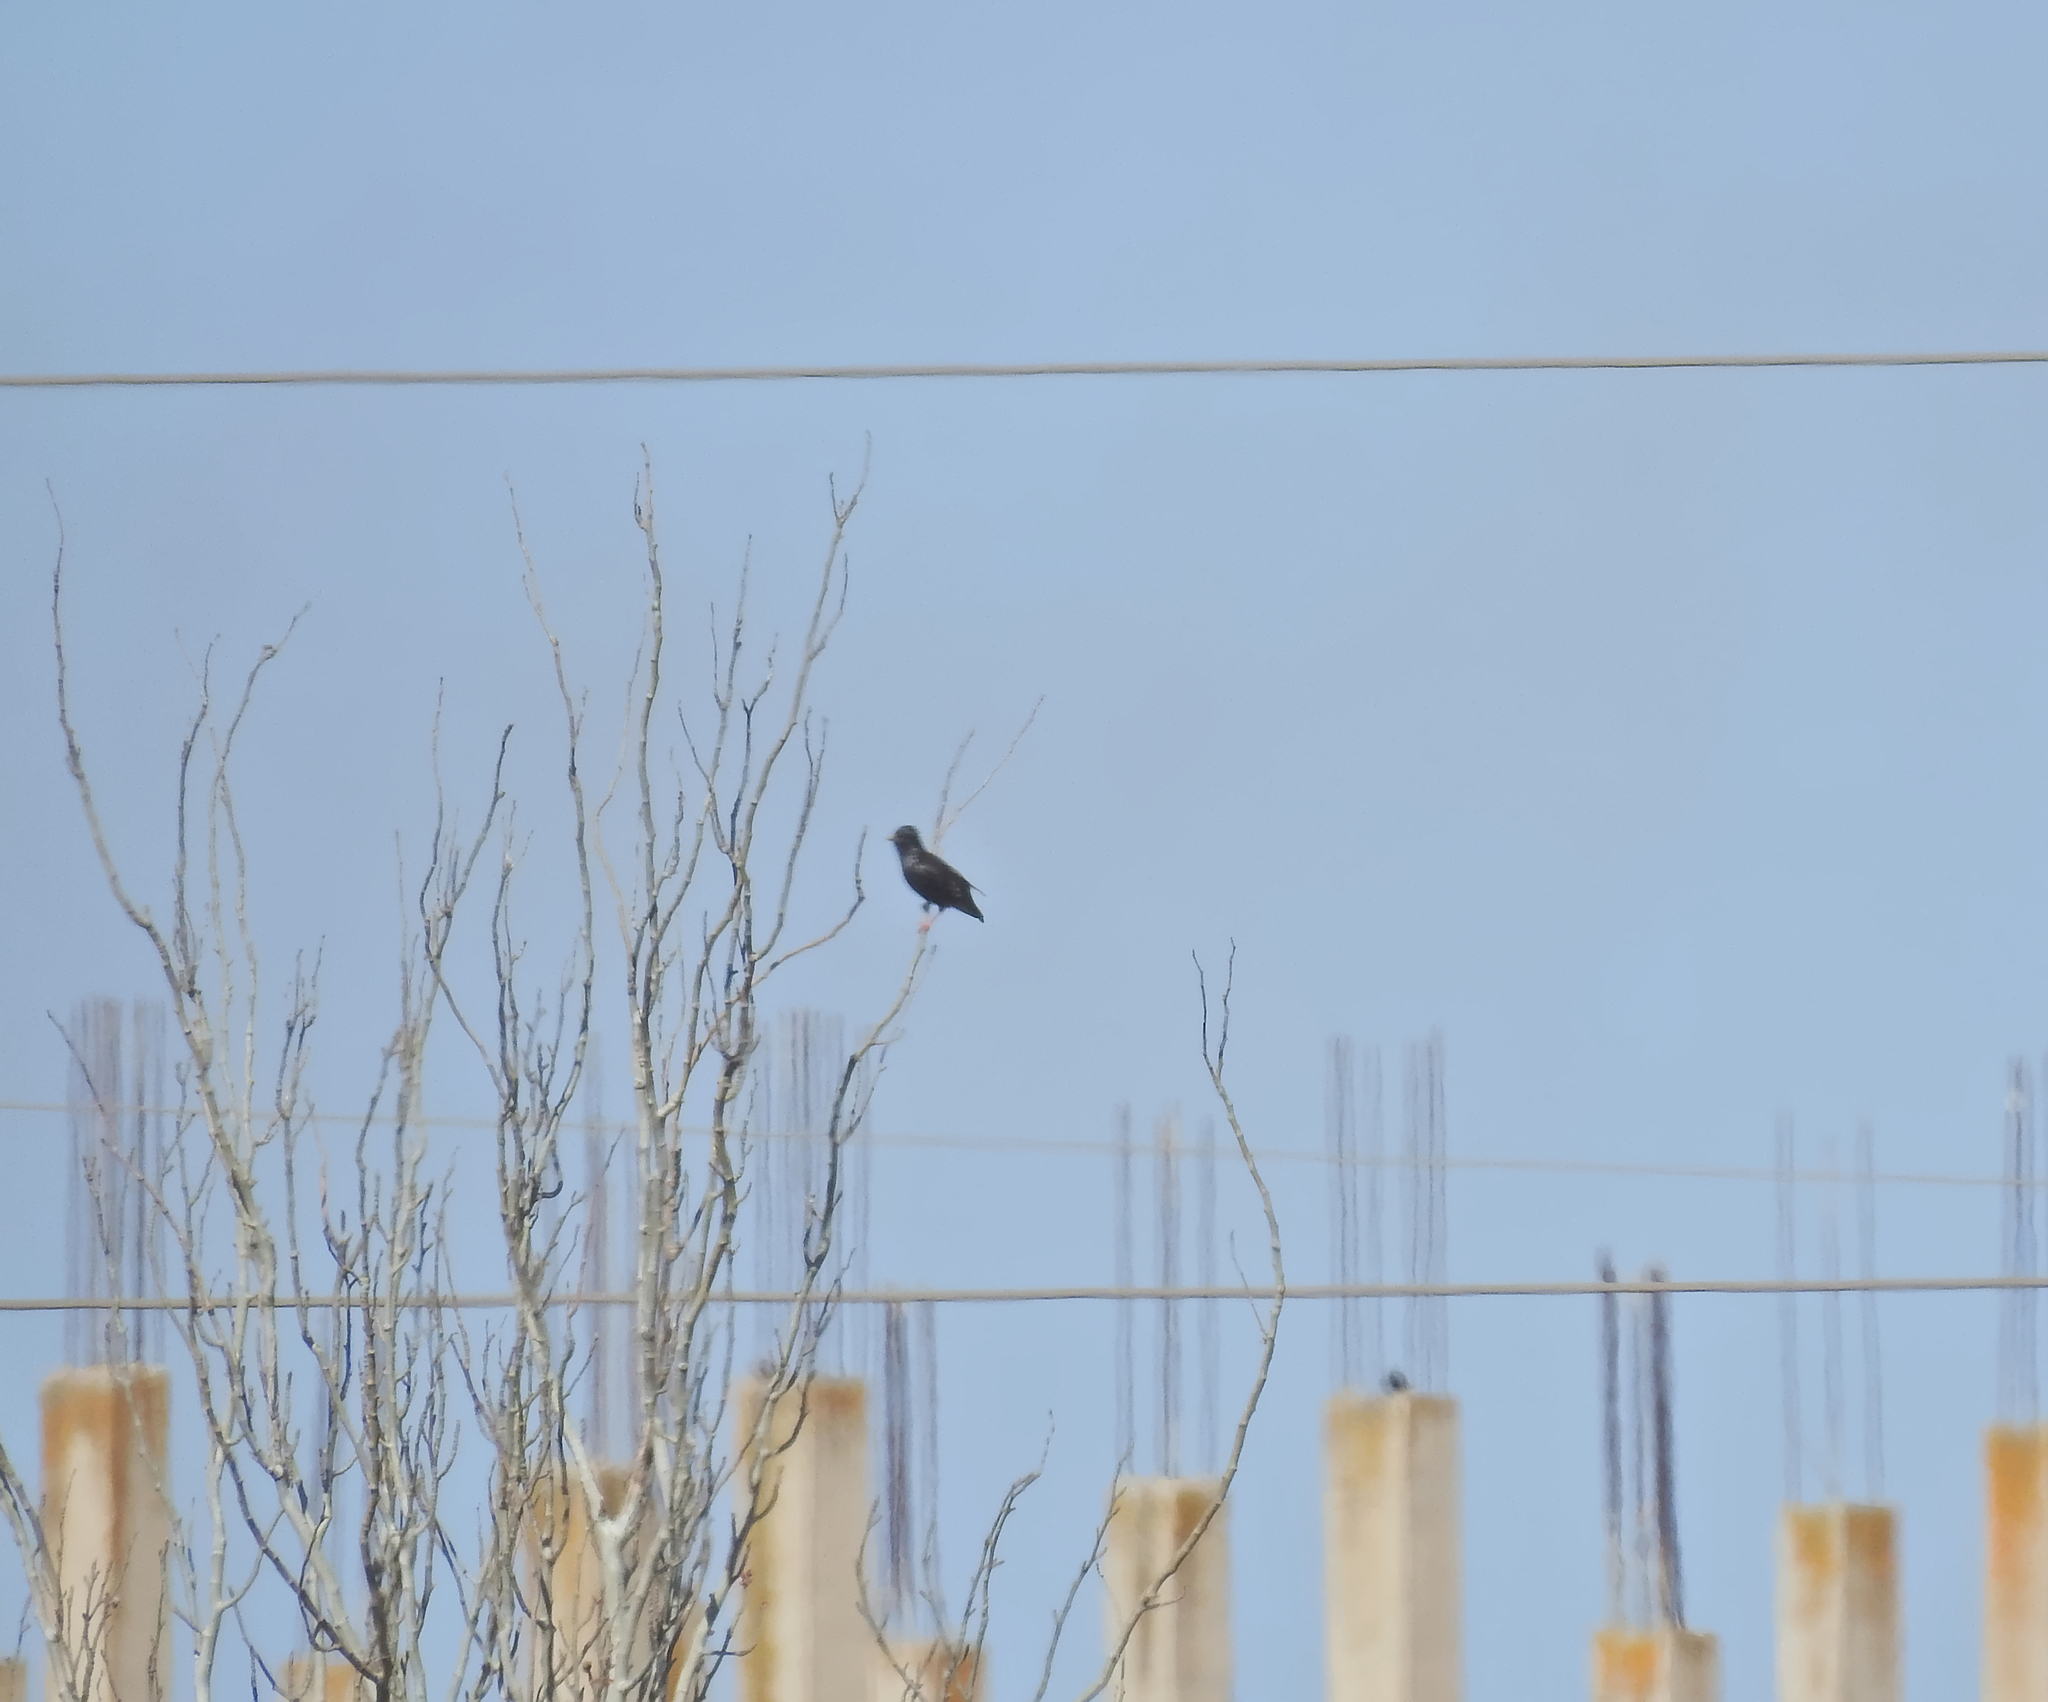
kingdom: Animalia
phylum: Chordata
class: Aves
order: Passeriformes
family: Sturnidae
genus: Sturnus
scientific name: Sturnus unicolor
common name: Spotless starling
